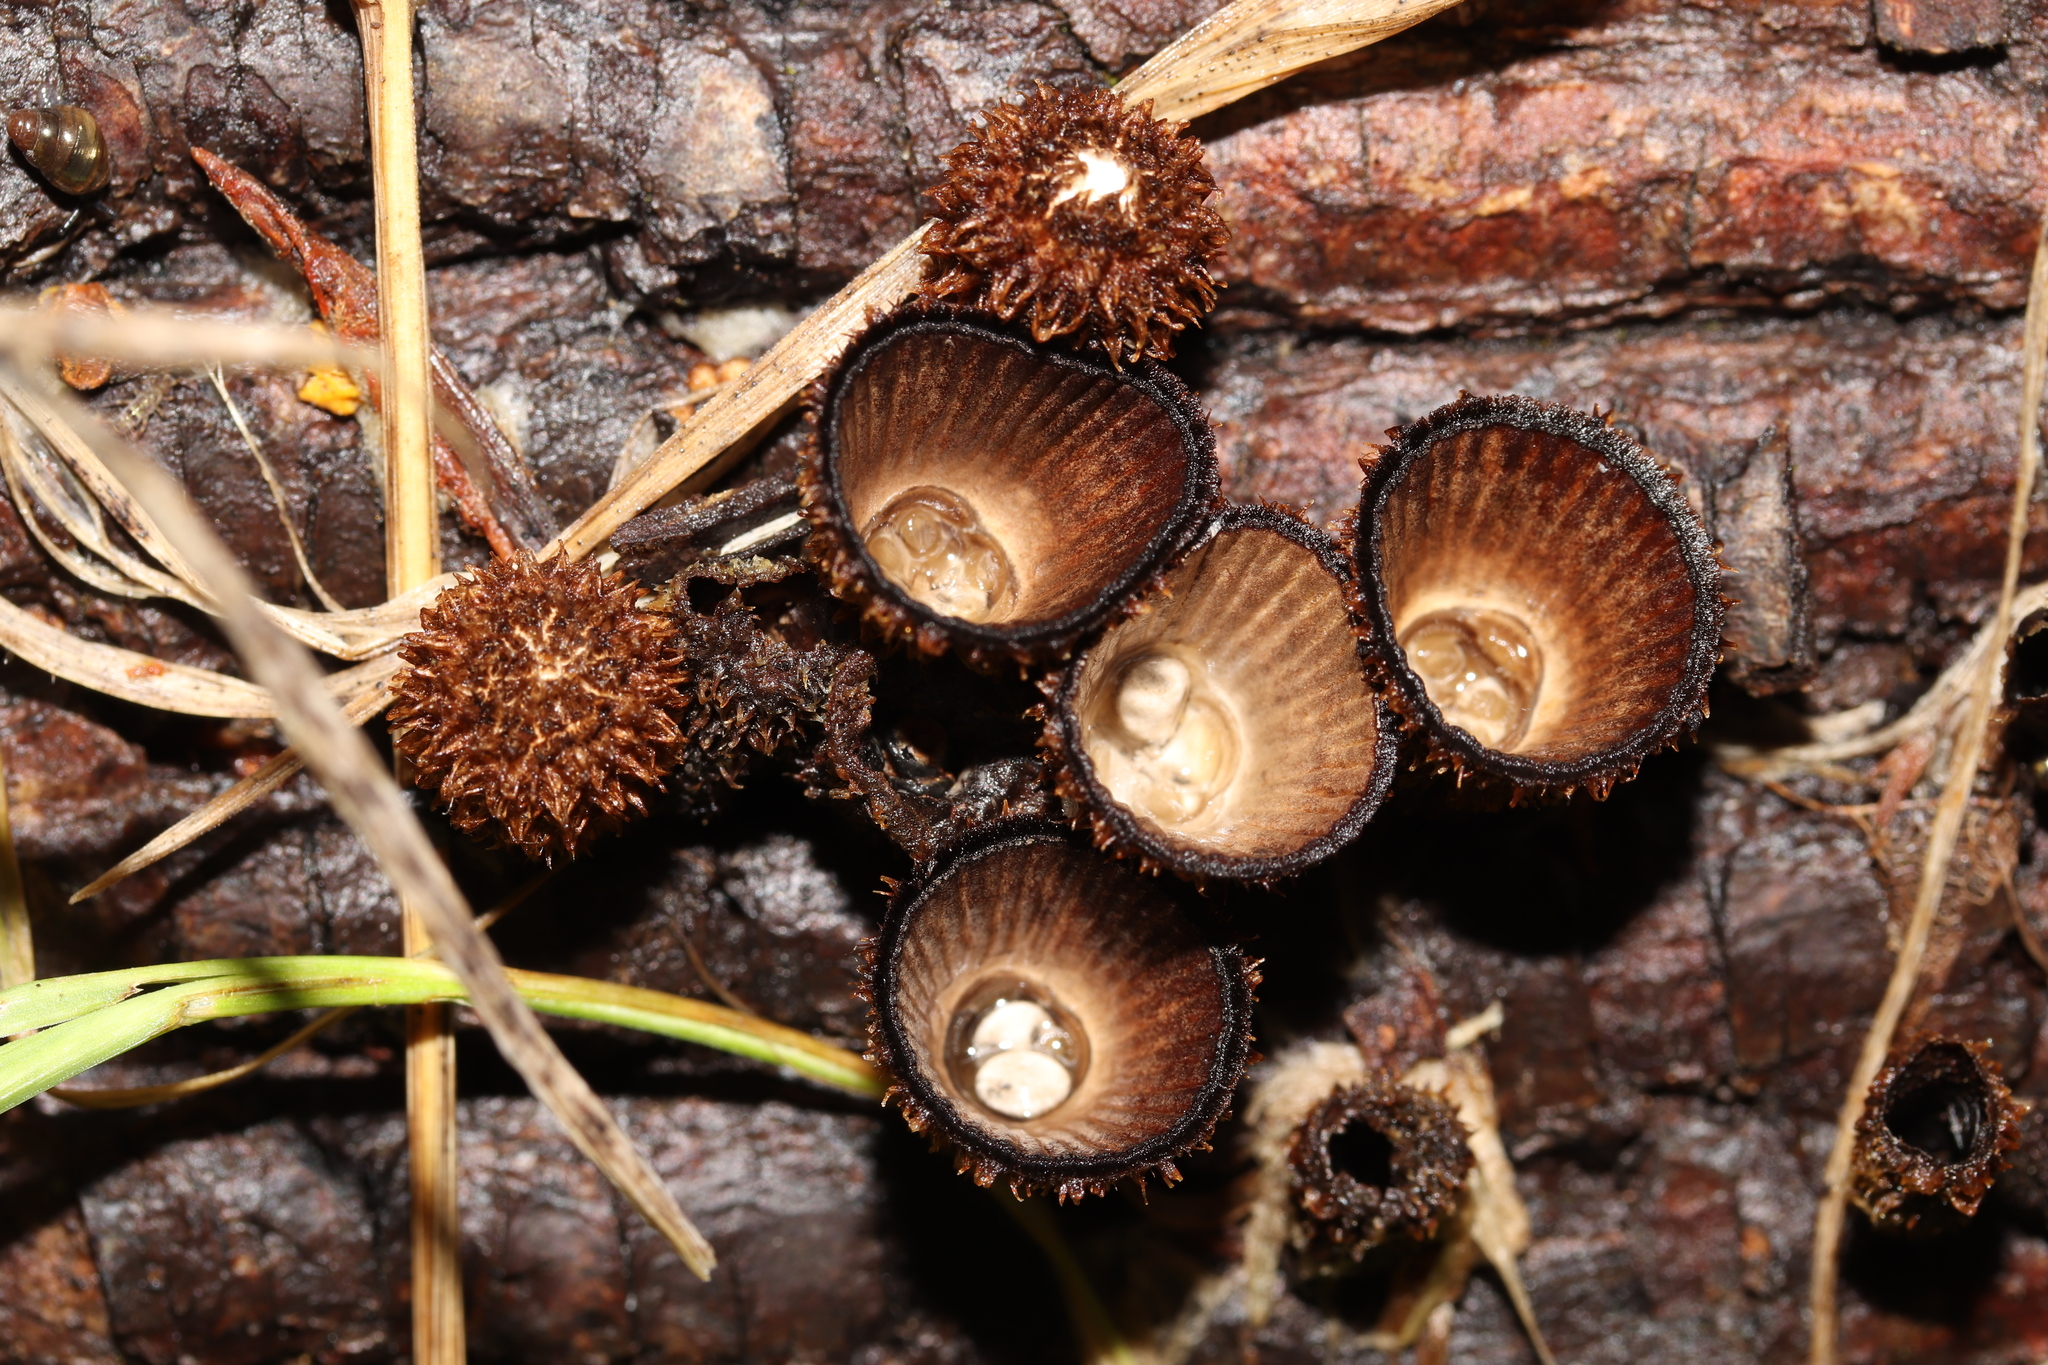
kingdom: Fungi
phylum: Basidiomycota
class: Agaricomycetes
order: Agaricales
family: Agaricaceae
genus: Cyathus
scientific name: Cyathus striatus
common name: Fluted bird's nest
